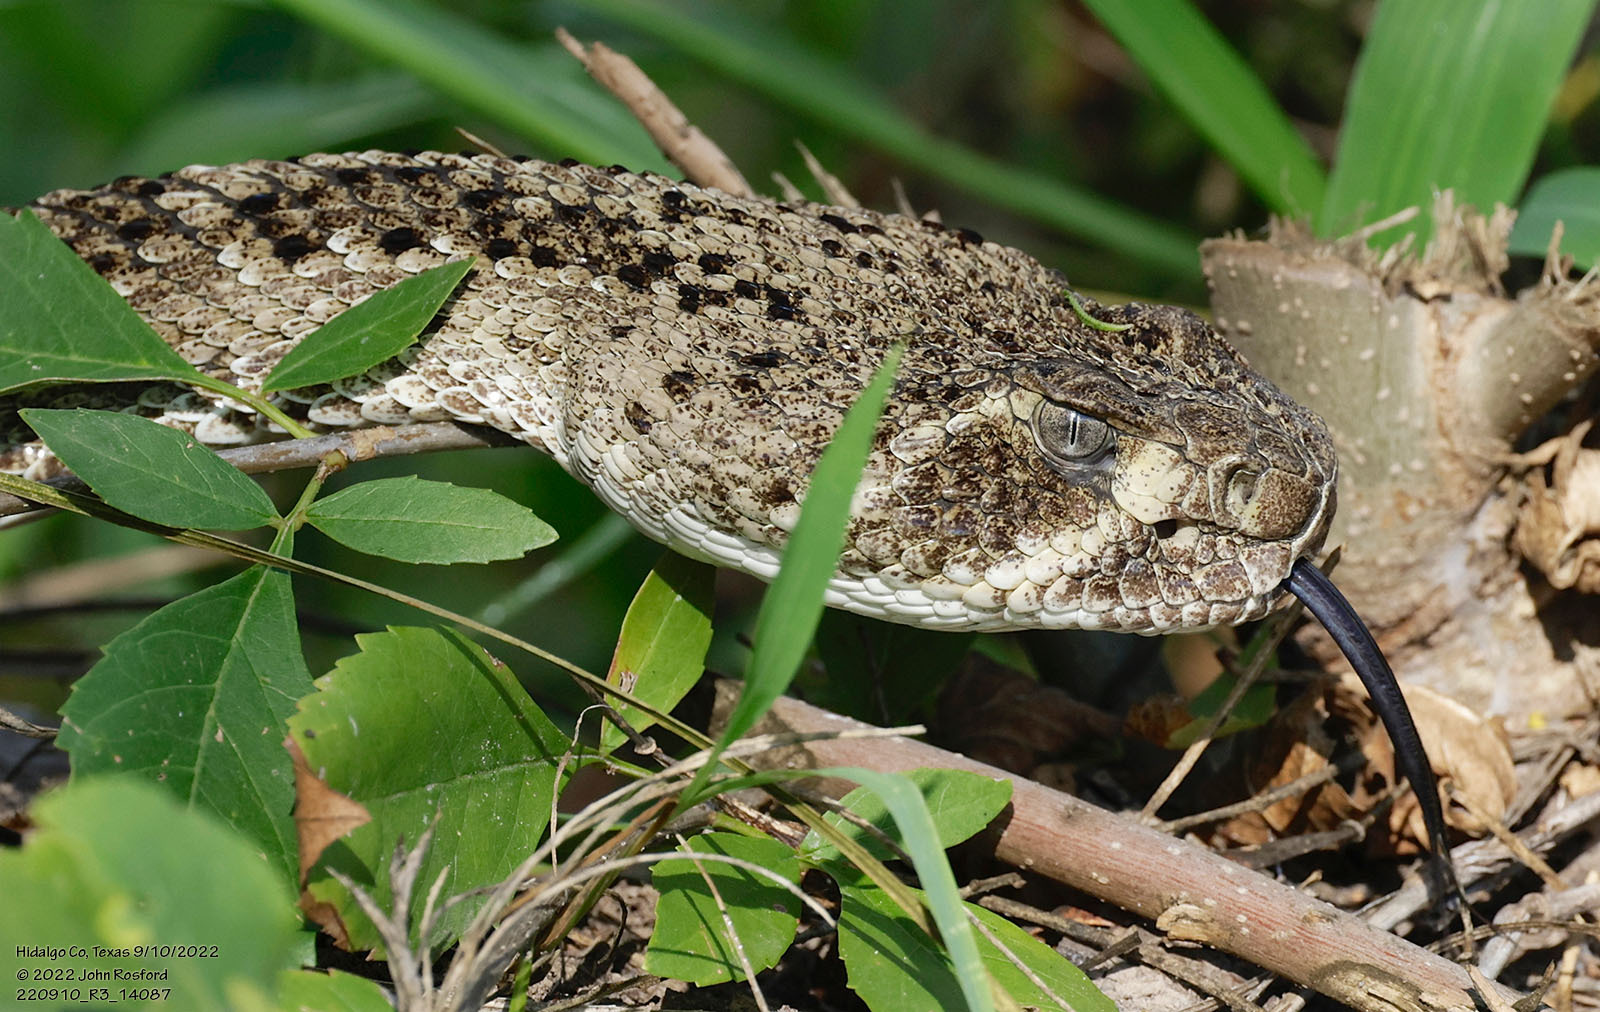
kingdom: Animalia
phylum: Chordata
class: Squamata
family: Viperidae
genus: Crotalus
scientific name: Crotalus atrox
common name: Western diamond-backed rattlesnake
